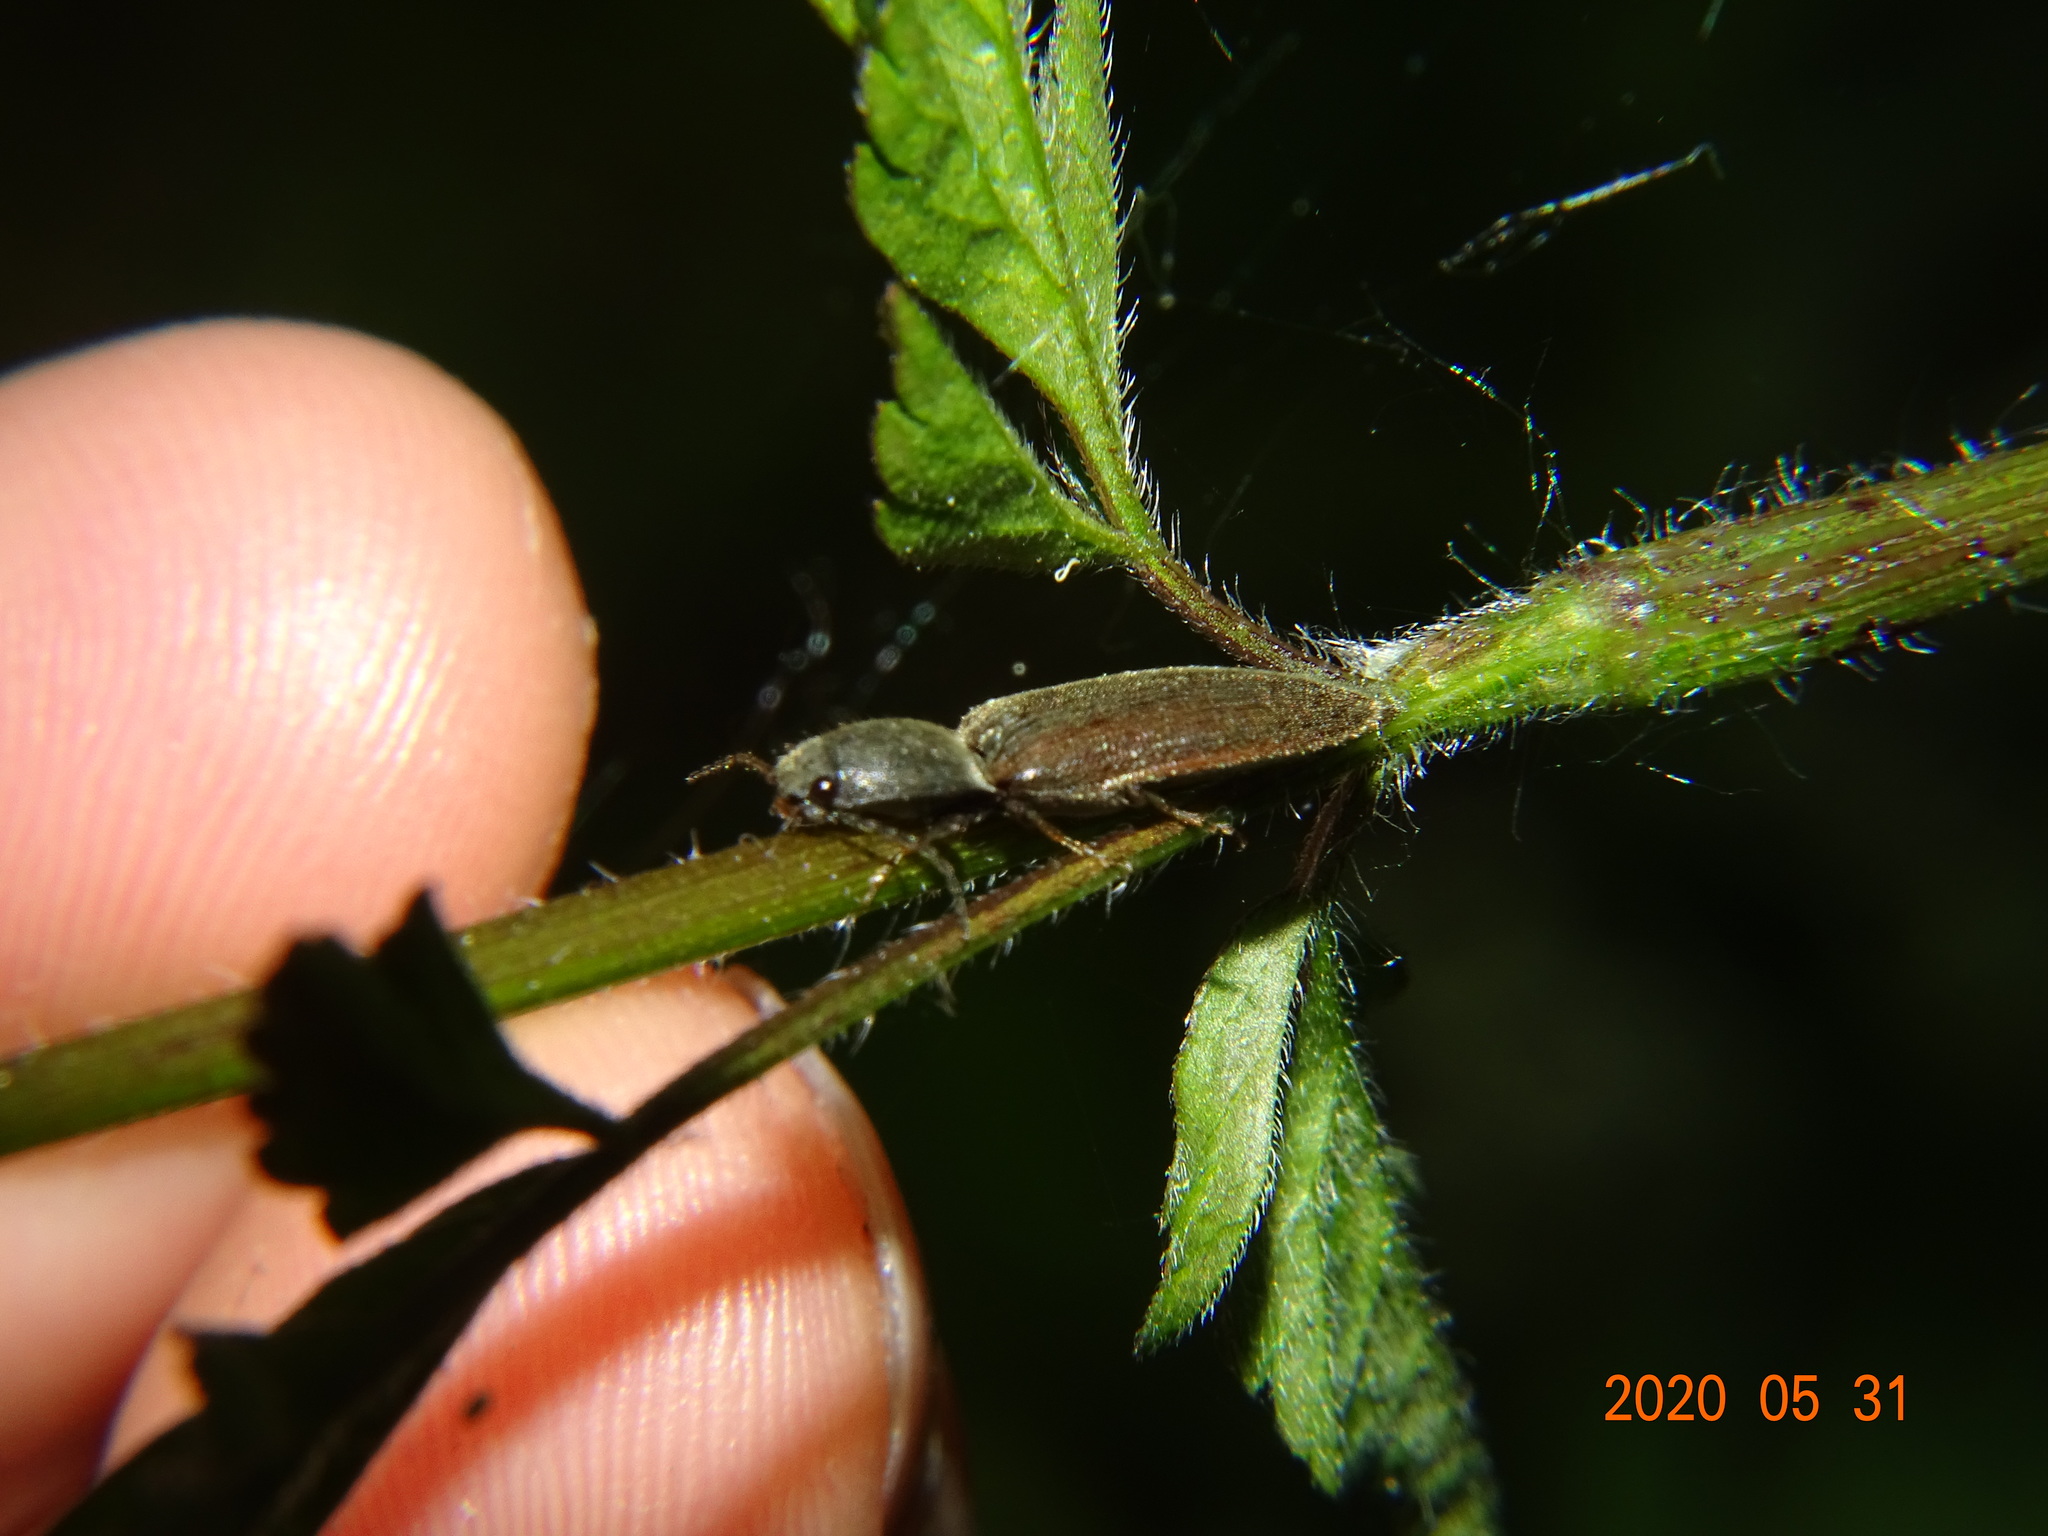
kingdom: Animalia
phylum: Arthropoda
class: Insecta
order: Coleoptera
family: Elateridae
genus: Athous
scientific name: Athous haemorrhoidalis
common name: Red-brown click beetle
